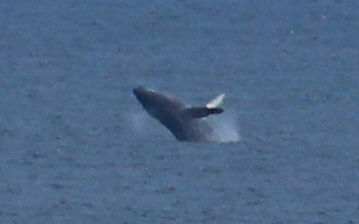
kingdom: Animalia
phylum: Chordata
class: Mammalia
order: Cetacea
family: Balaenopteridae
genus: Megaptera
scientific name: Megaptera novaeangliae
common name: Humpback whale
